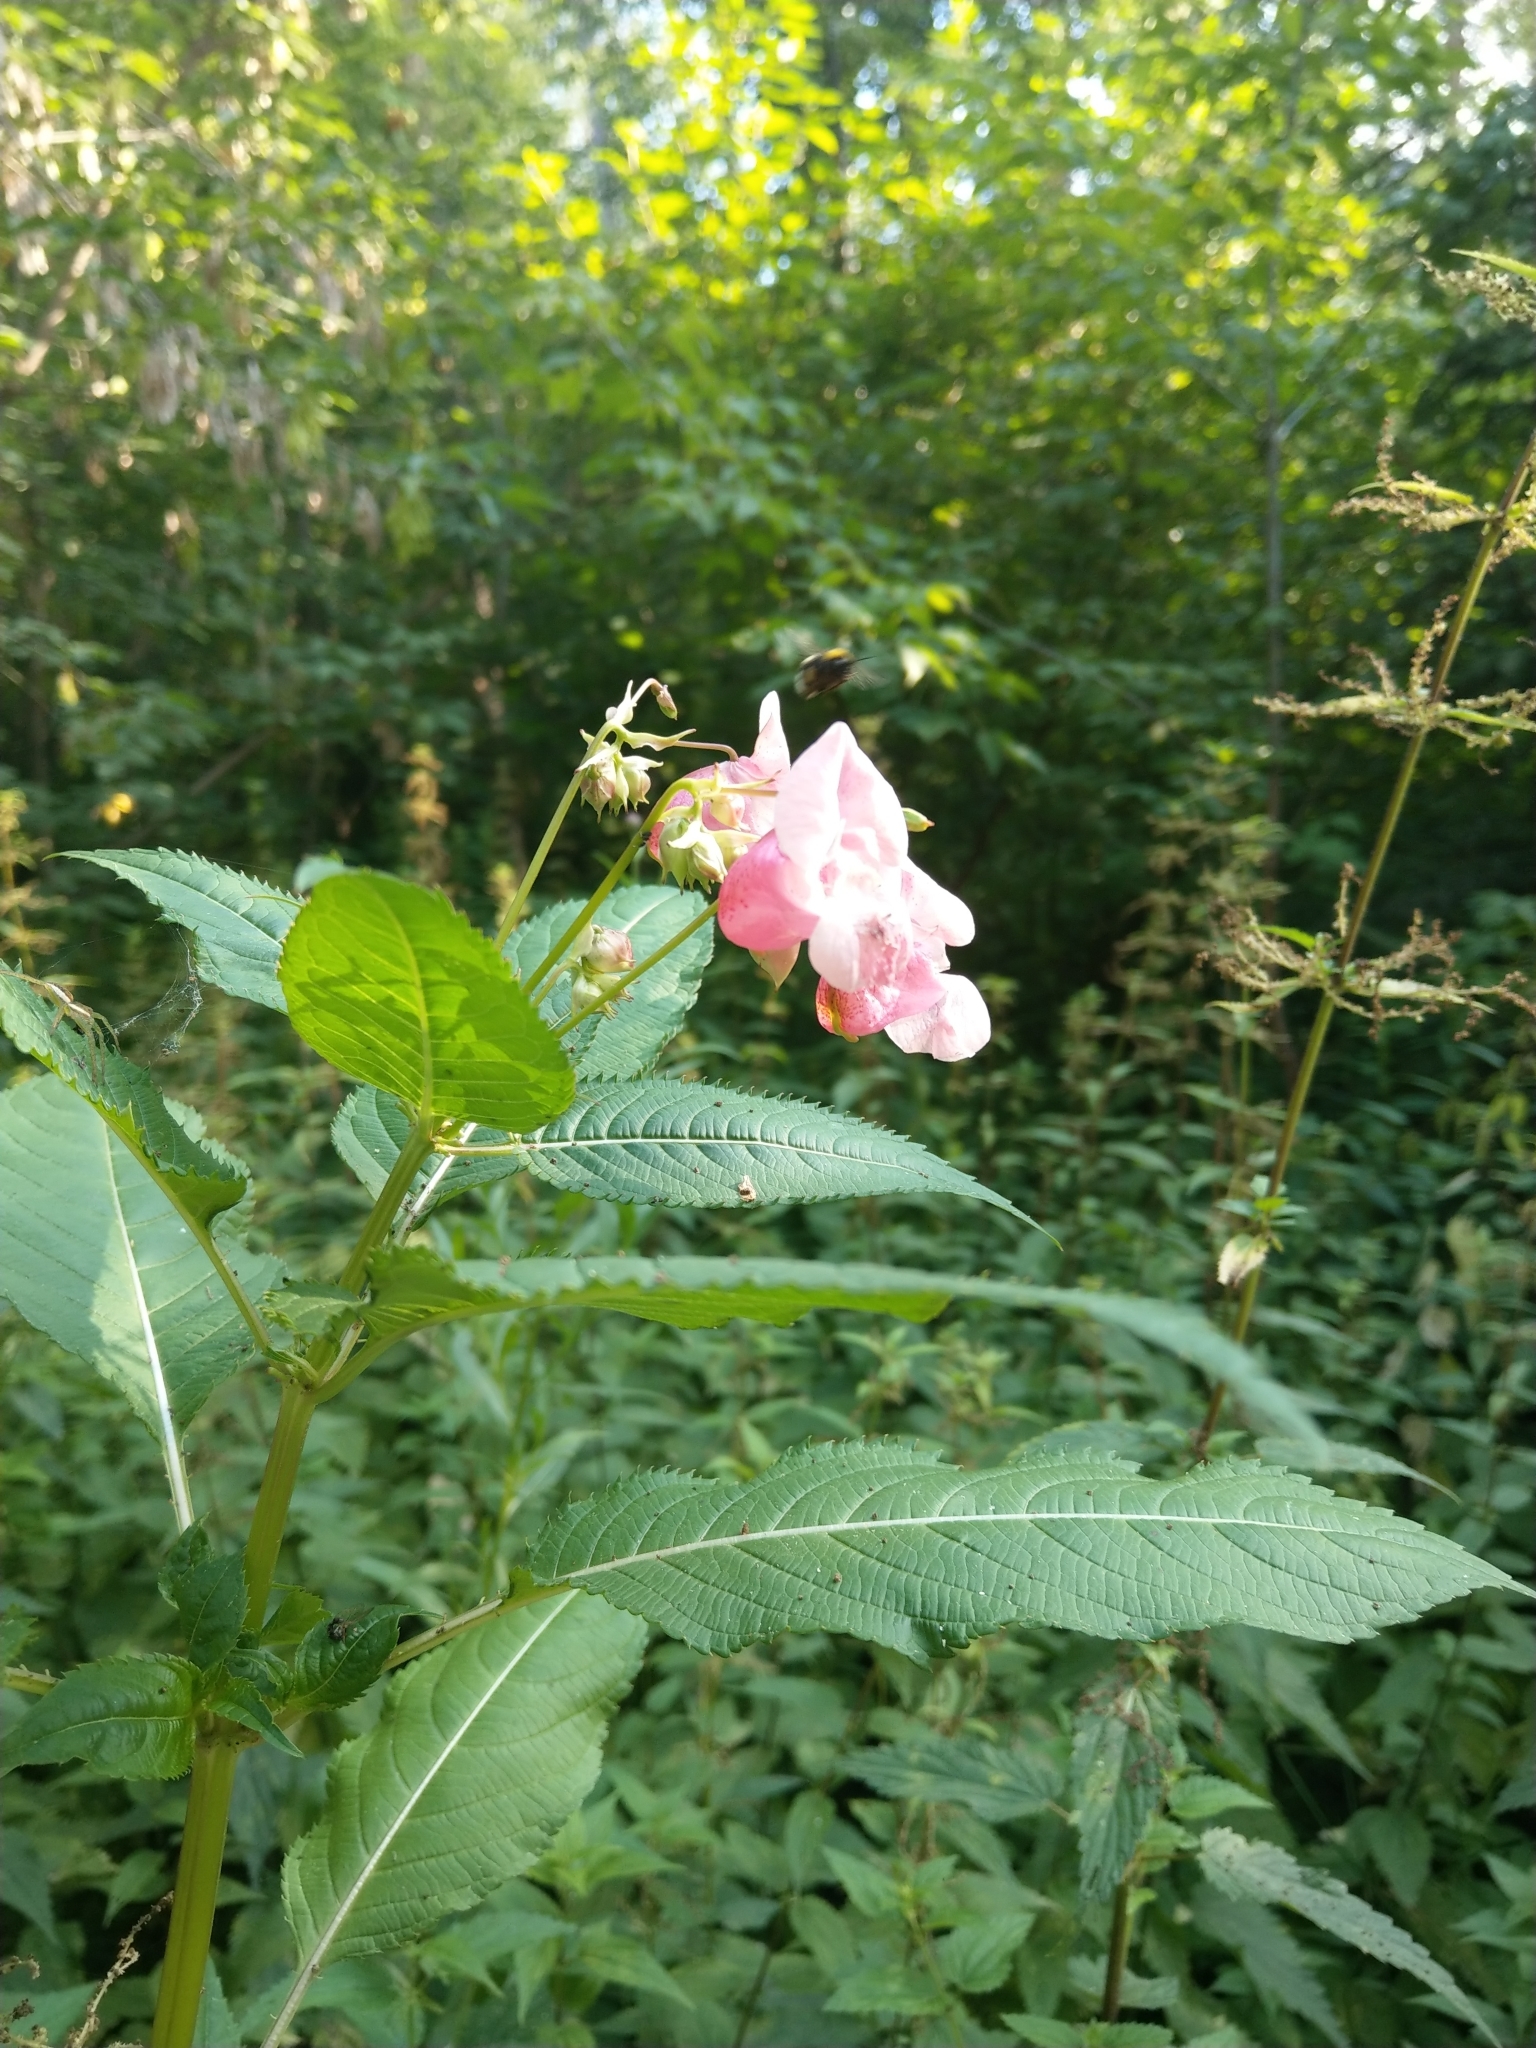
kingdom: Plantae
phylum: Tracheophyta
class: Magnoliopsida
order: Ericales
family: Balsaminaceae
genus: Impatiens
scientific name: Impatiens glandulifera
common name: Himalayan balsam
